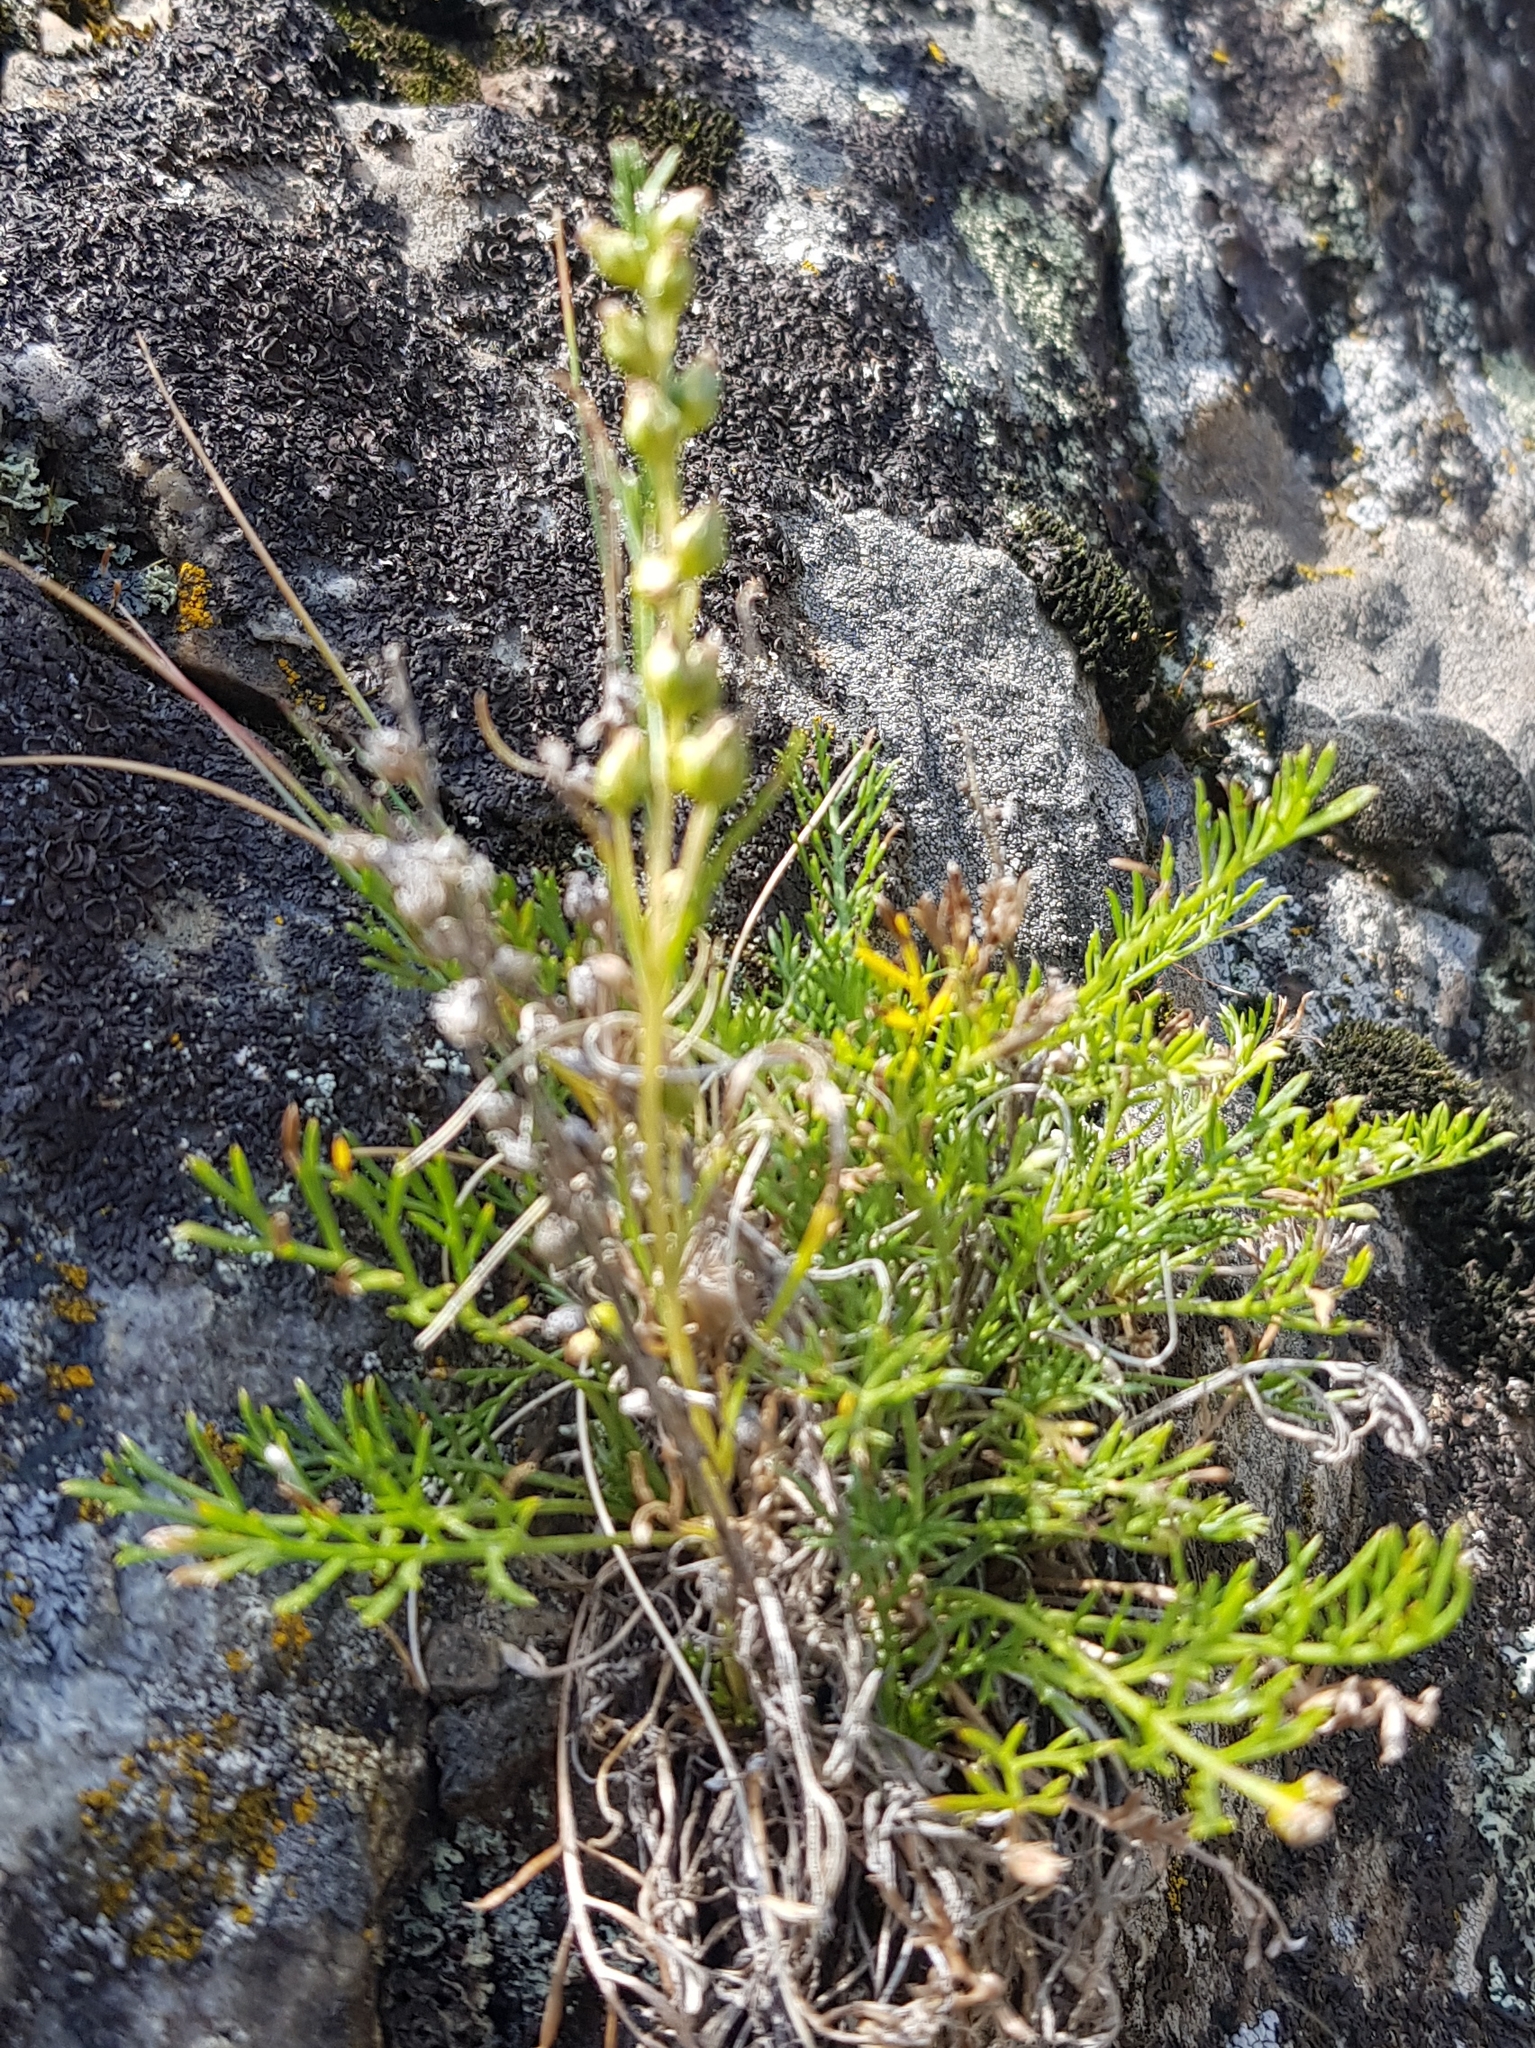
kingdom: Plantae
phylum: Tracheophyta
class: Magnoliopsida
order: Asterales
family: Asteraceae
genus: Artemisia
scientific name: Artemisia pubescens
